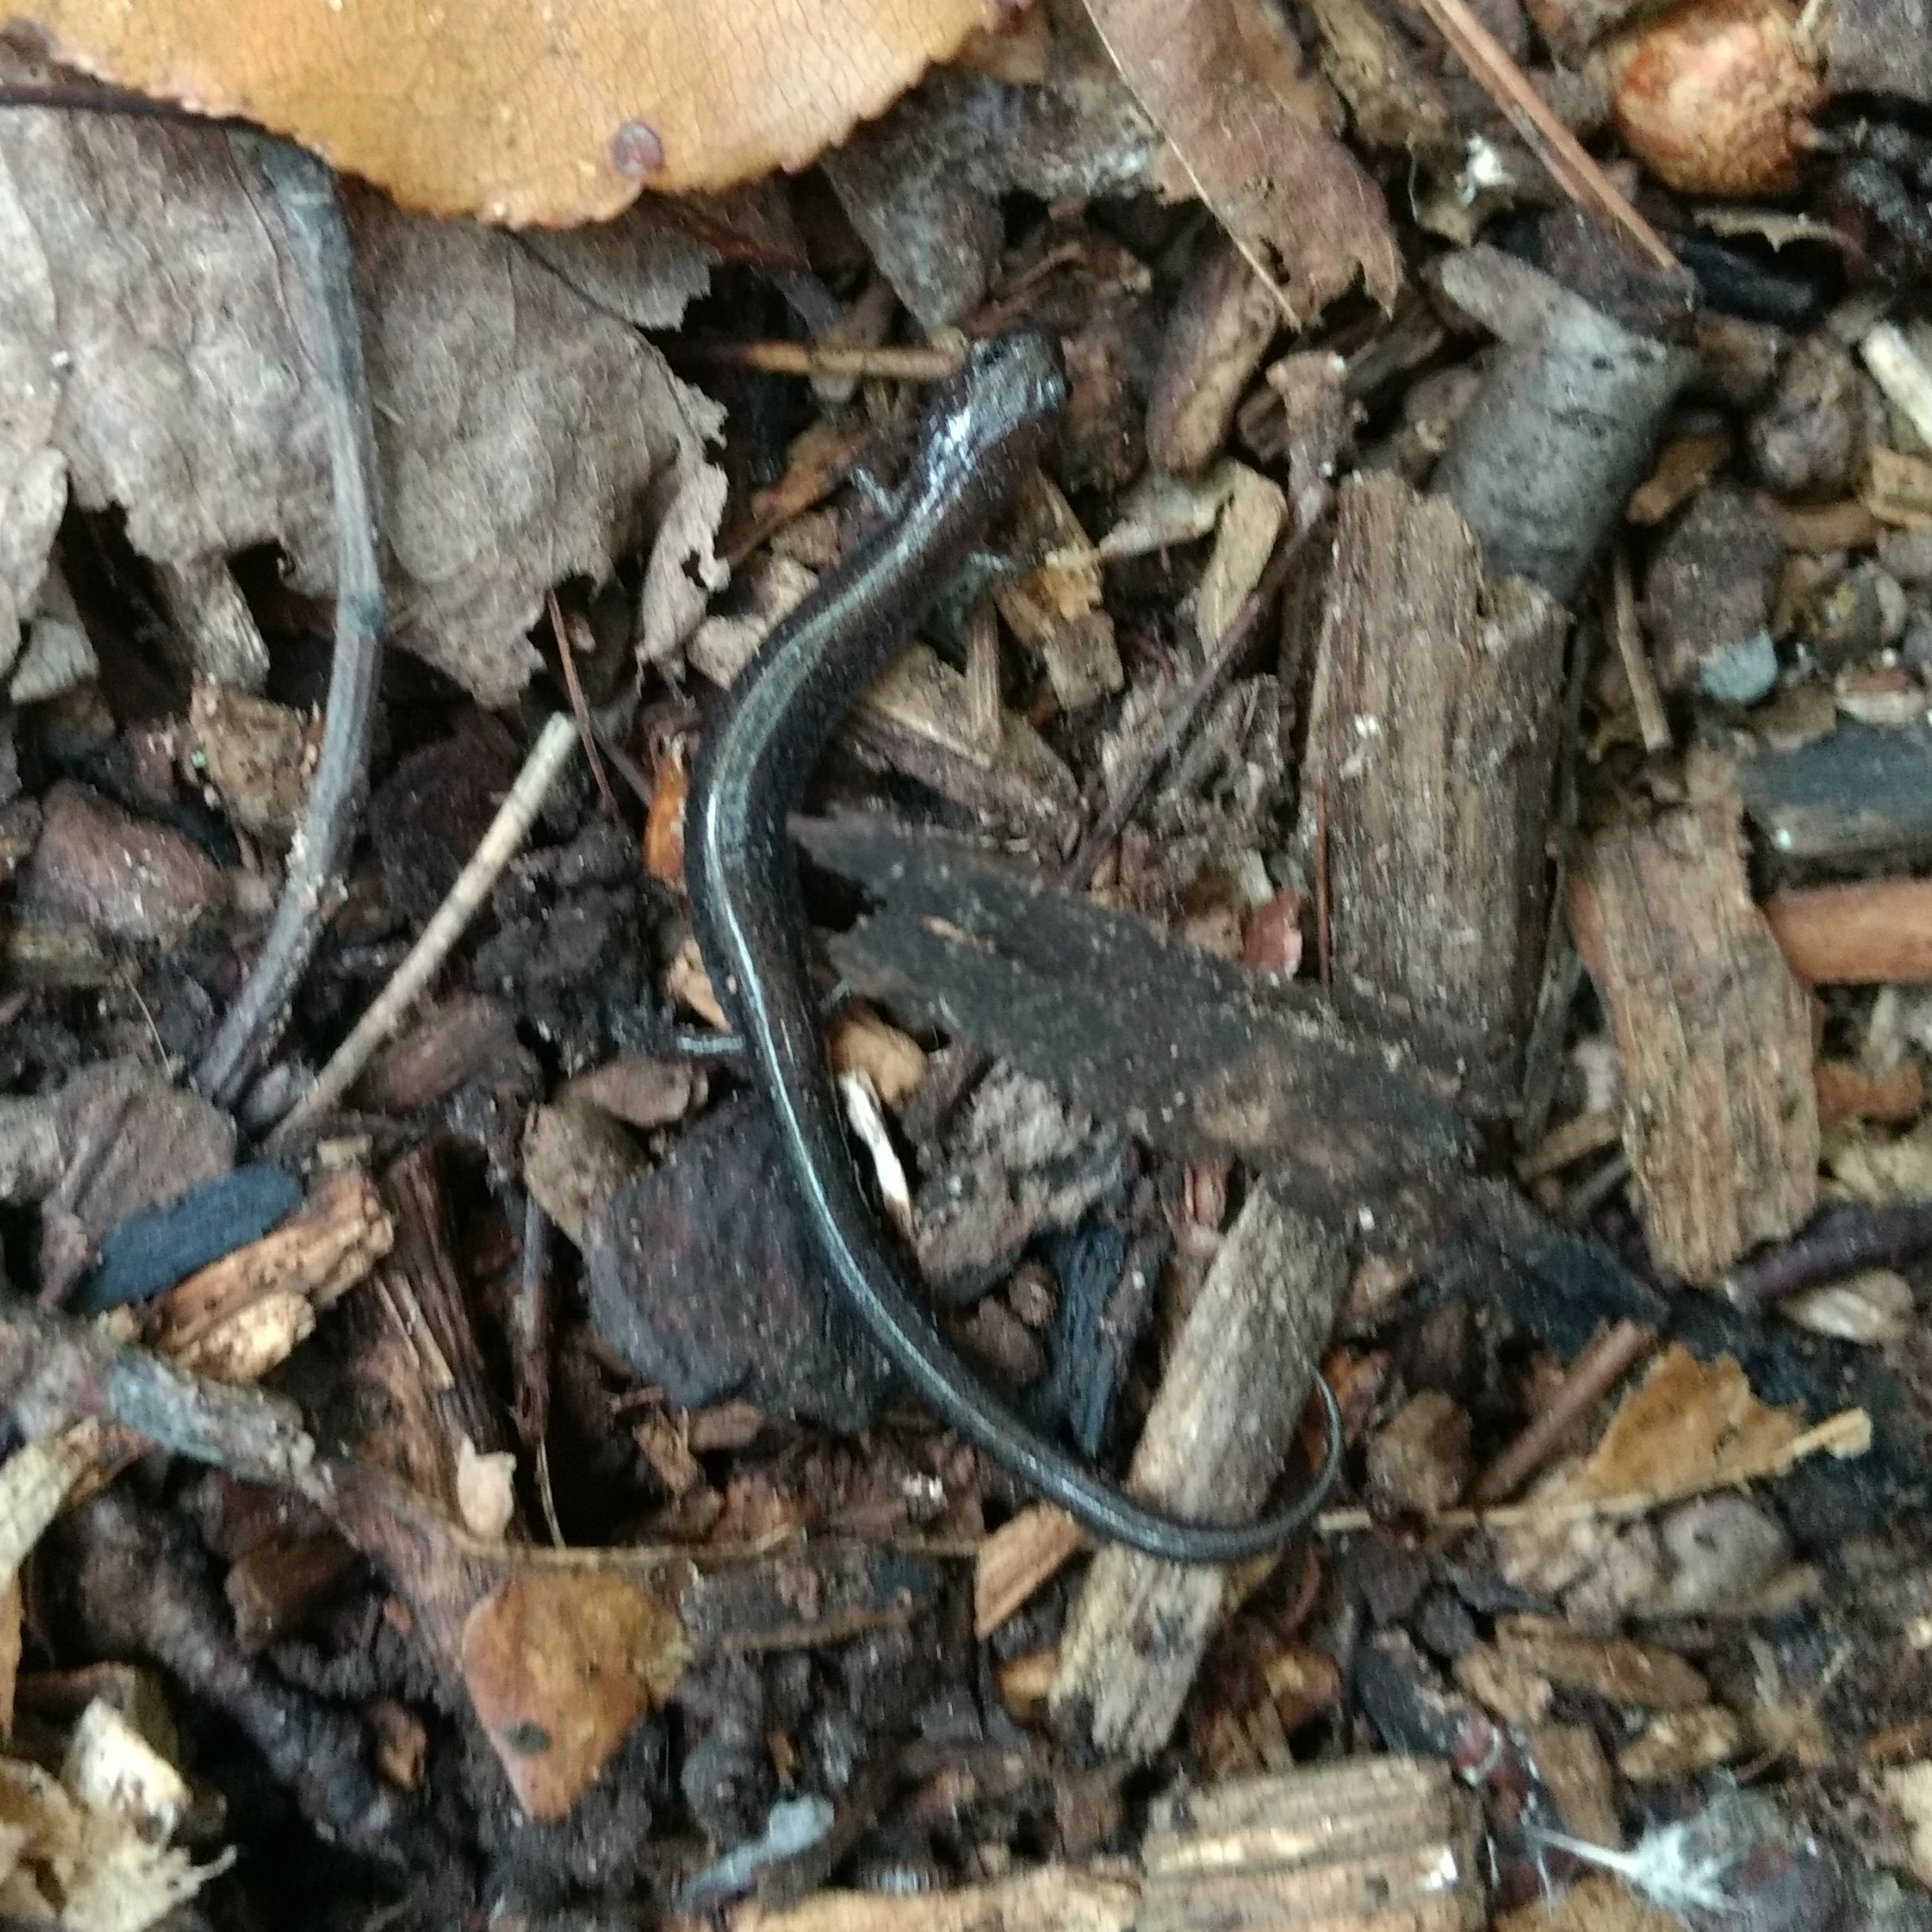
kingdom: Animalia
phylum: Chordata
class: Amphibia
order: Caudata
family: Plethodontidae
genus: Plethodon
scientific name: Plethodon cinereus
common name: Redback salamander
